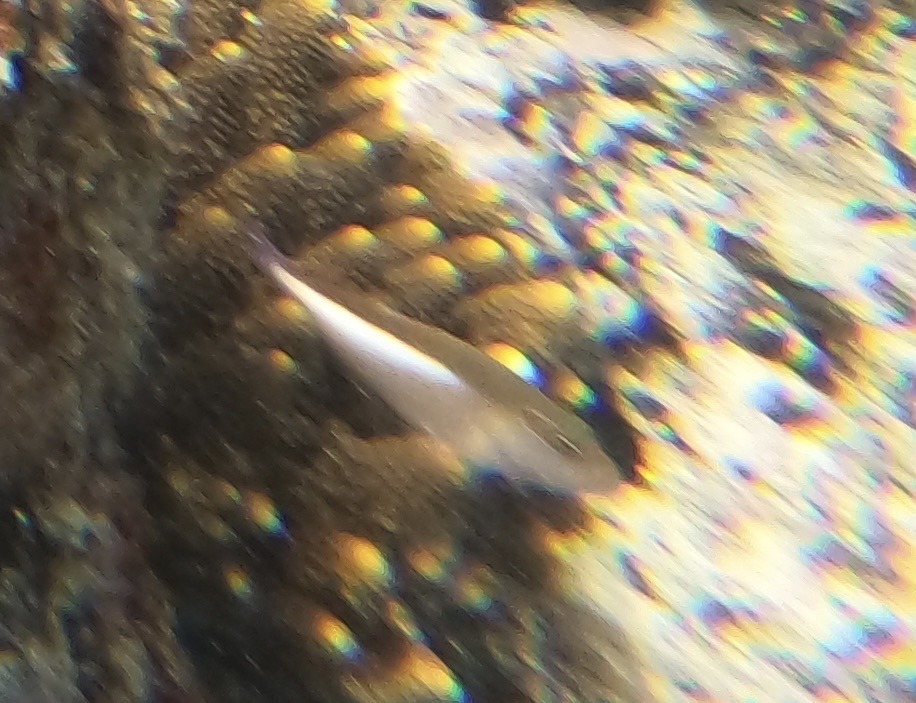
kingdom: Animalia
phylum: Chordata
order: Perciformes
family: Cirrhitidae
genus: Paracirrhites
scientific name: Paracirrhites arcatus
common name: Arc-eye hawkfish
